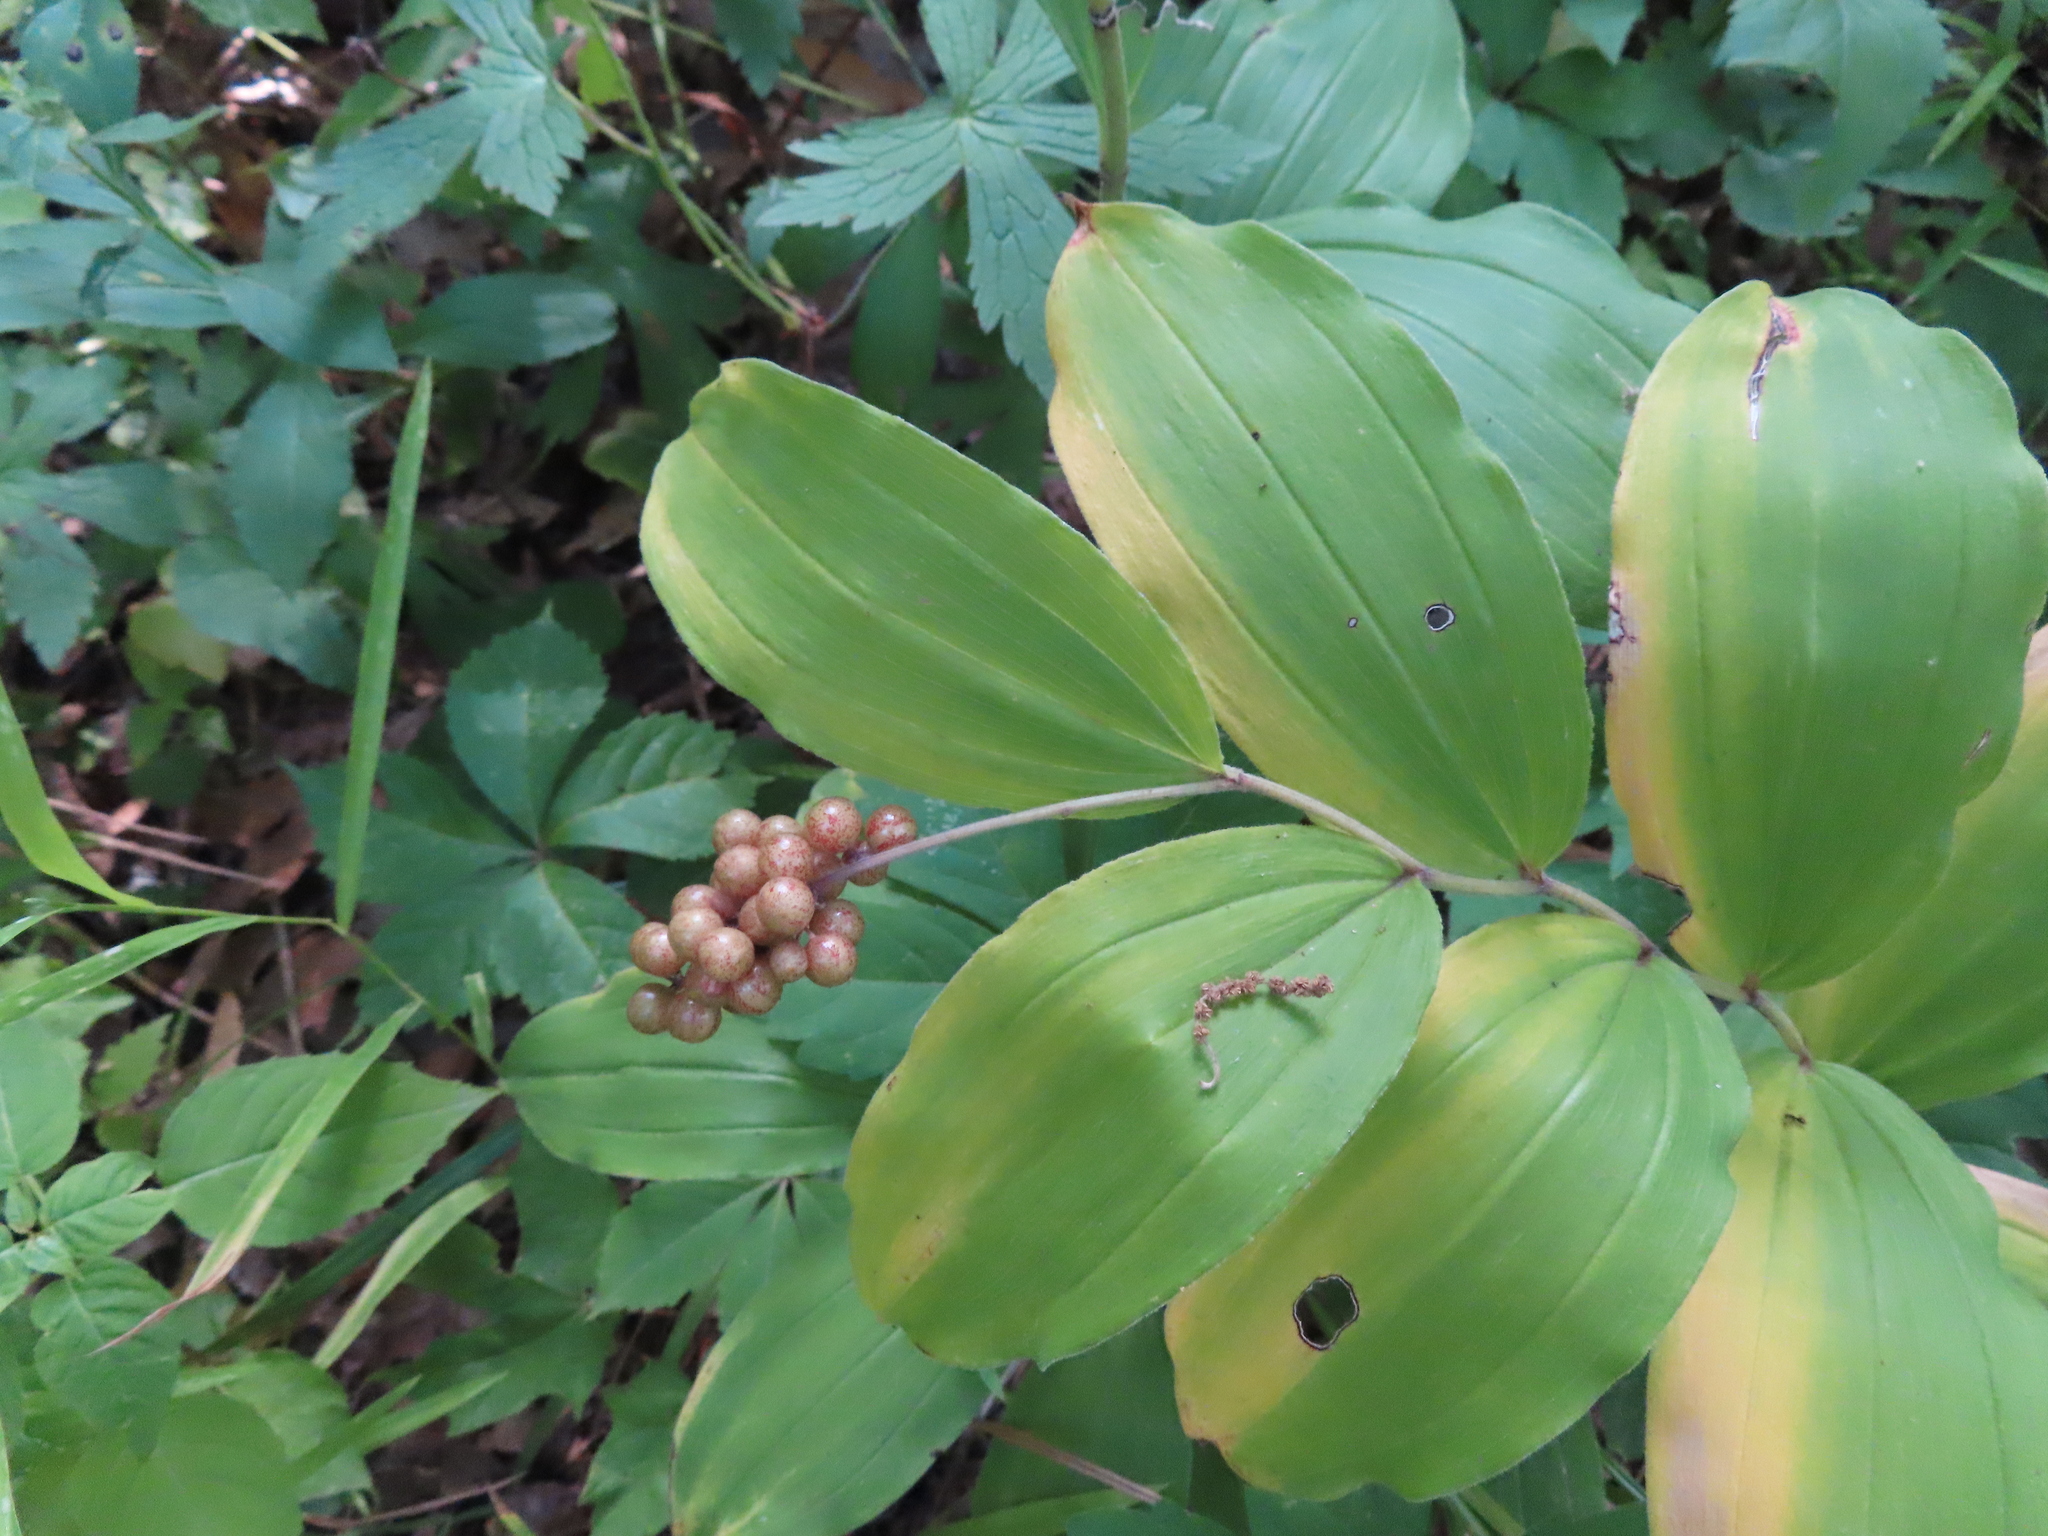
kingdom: Plantae
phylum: Tracheophyta
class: Liliopsida
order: Asparagales
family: Asparagaceae
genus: Maianthemum
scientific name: Maianthemum racemosum
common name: False spikenard
